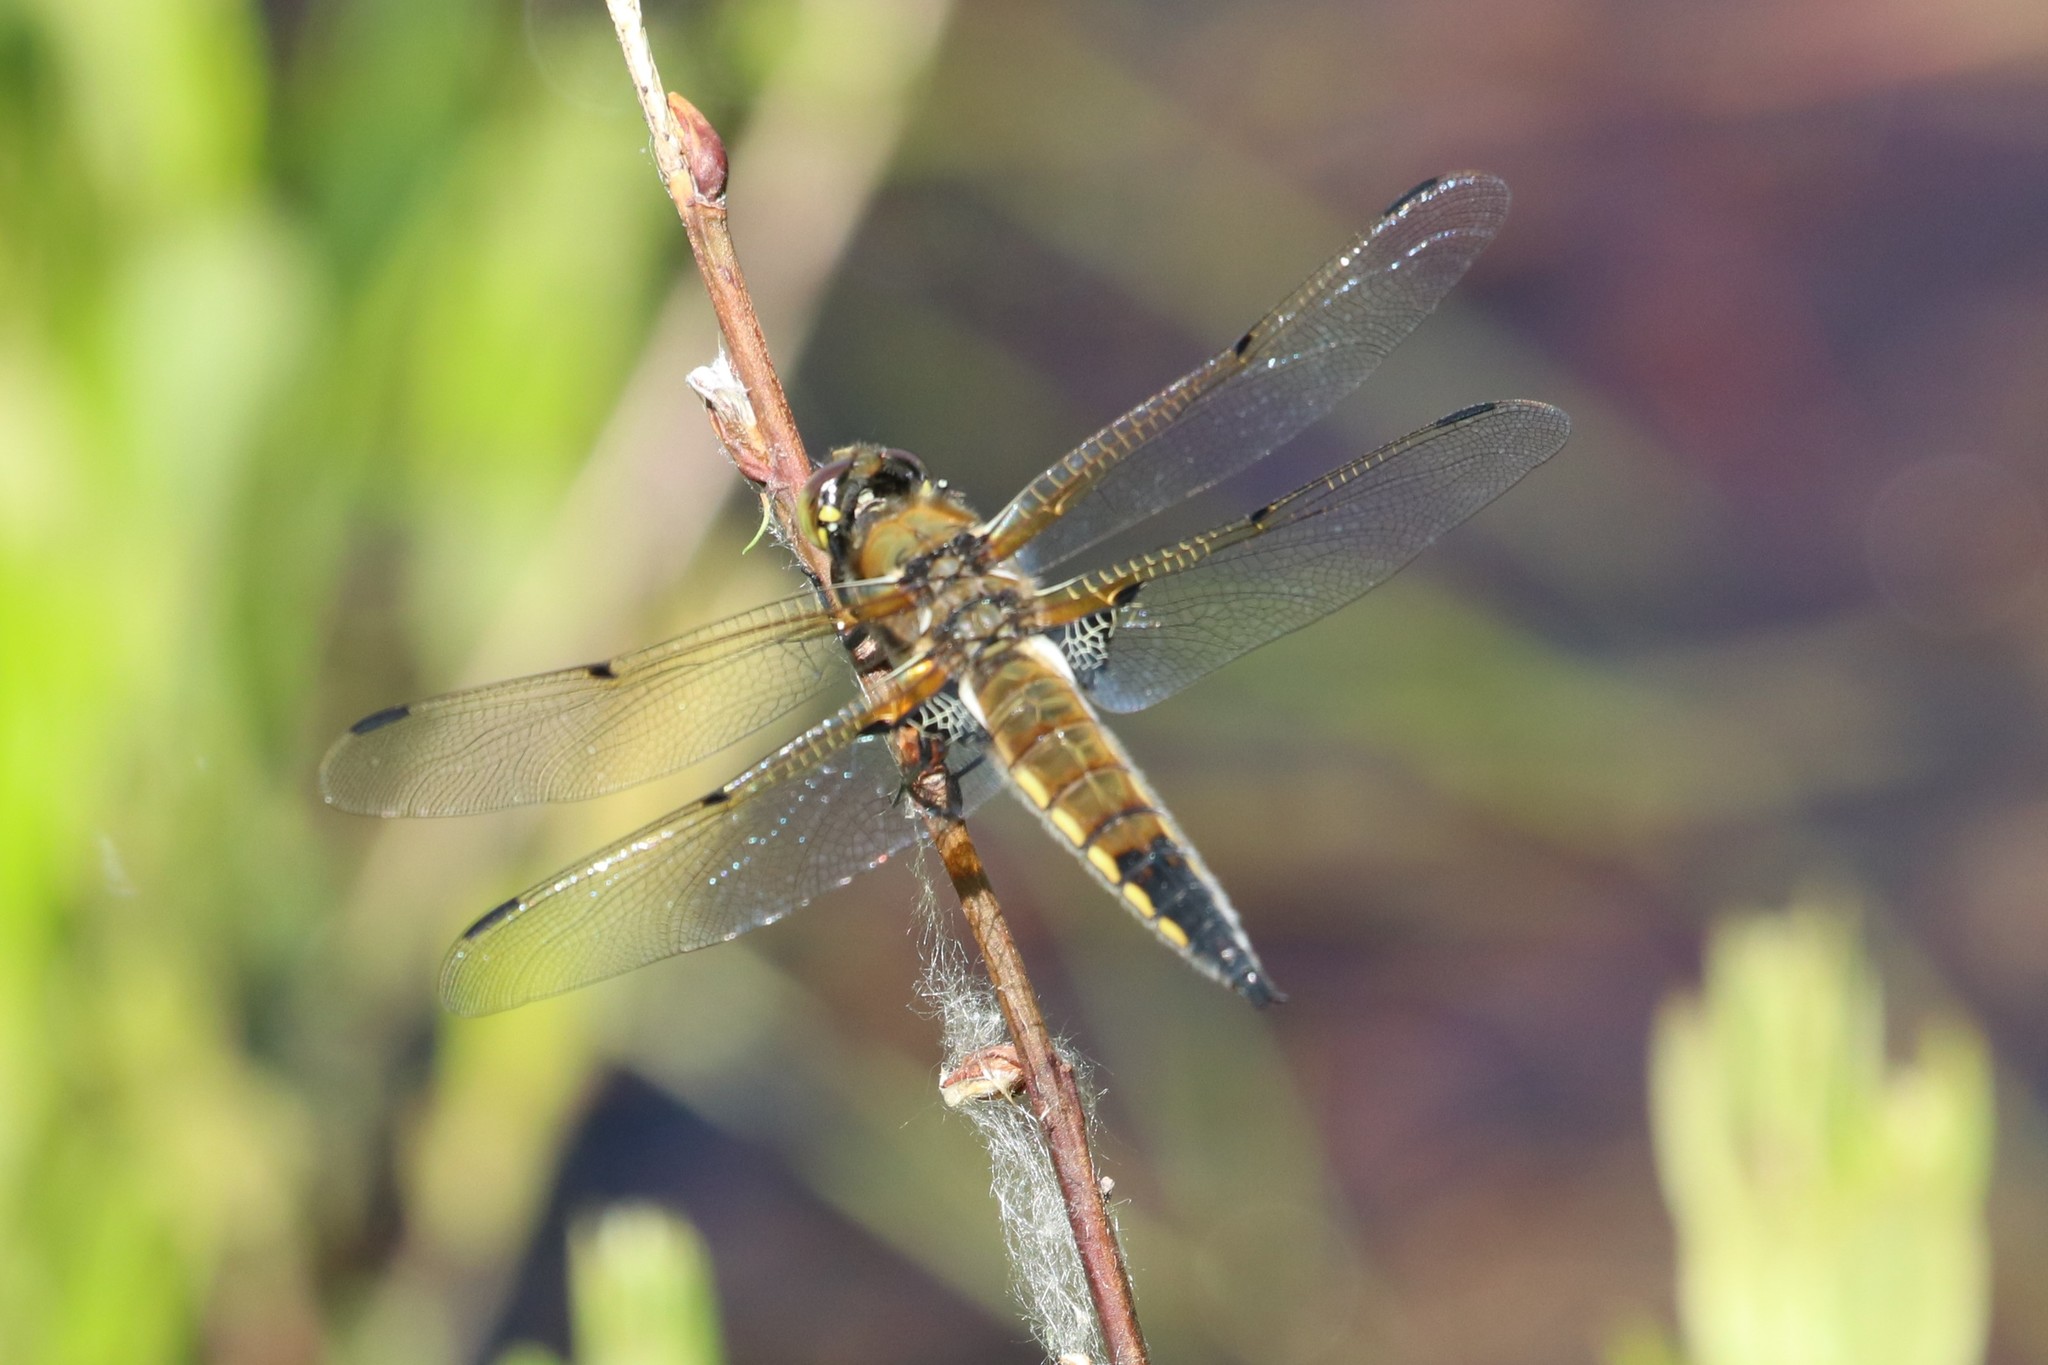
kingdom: Animalia
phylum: Arthropoda
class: Insecta
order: Odonata
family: Libellulidae
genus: Libellula
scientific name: Libellula quadrimaculata
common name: Four-spotted chaser
